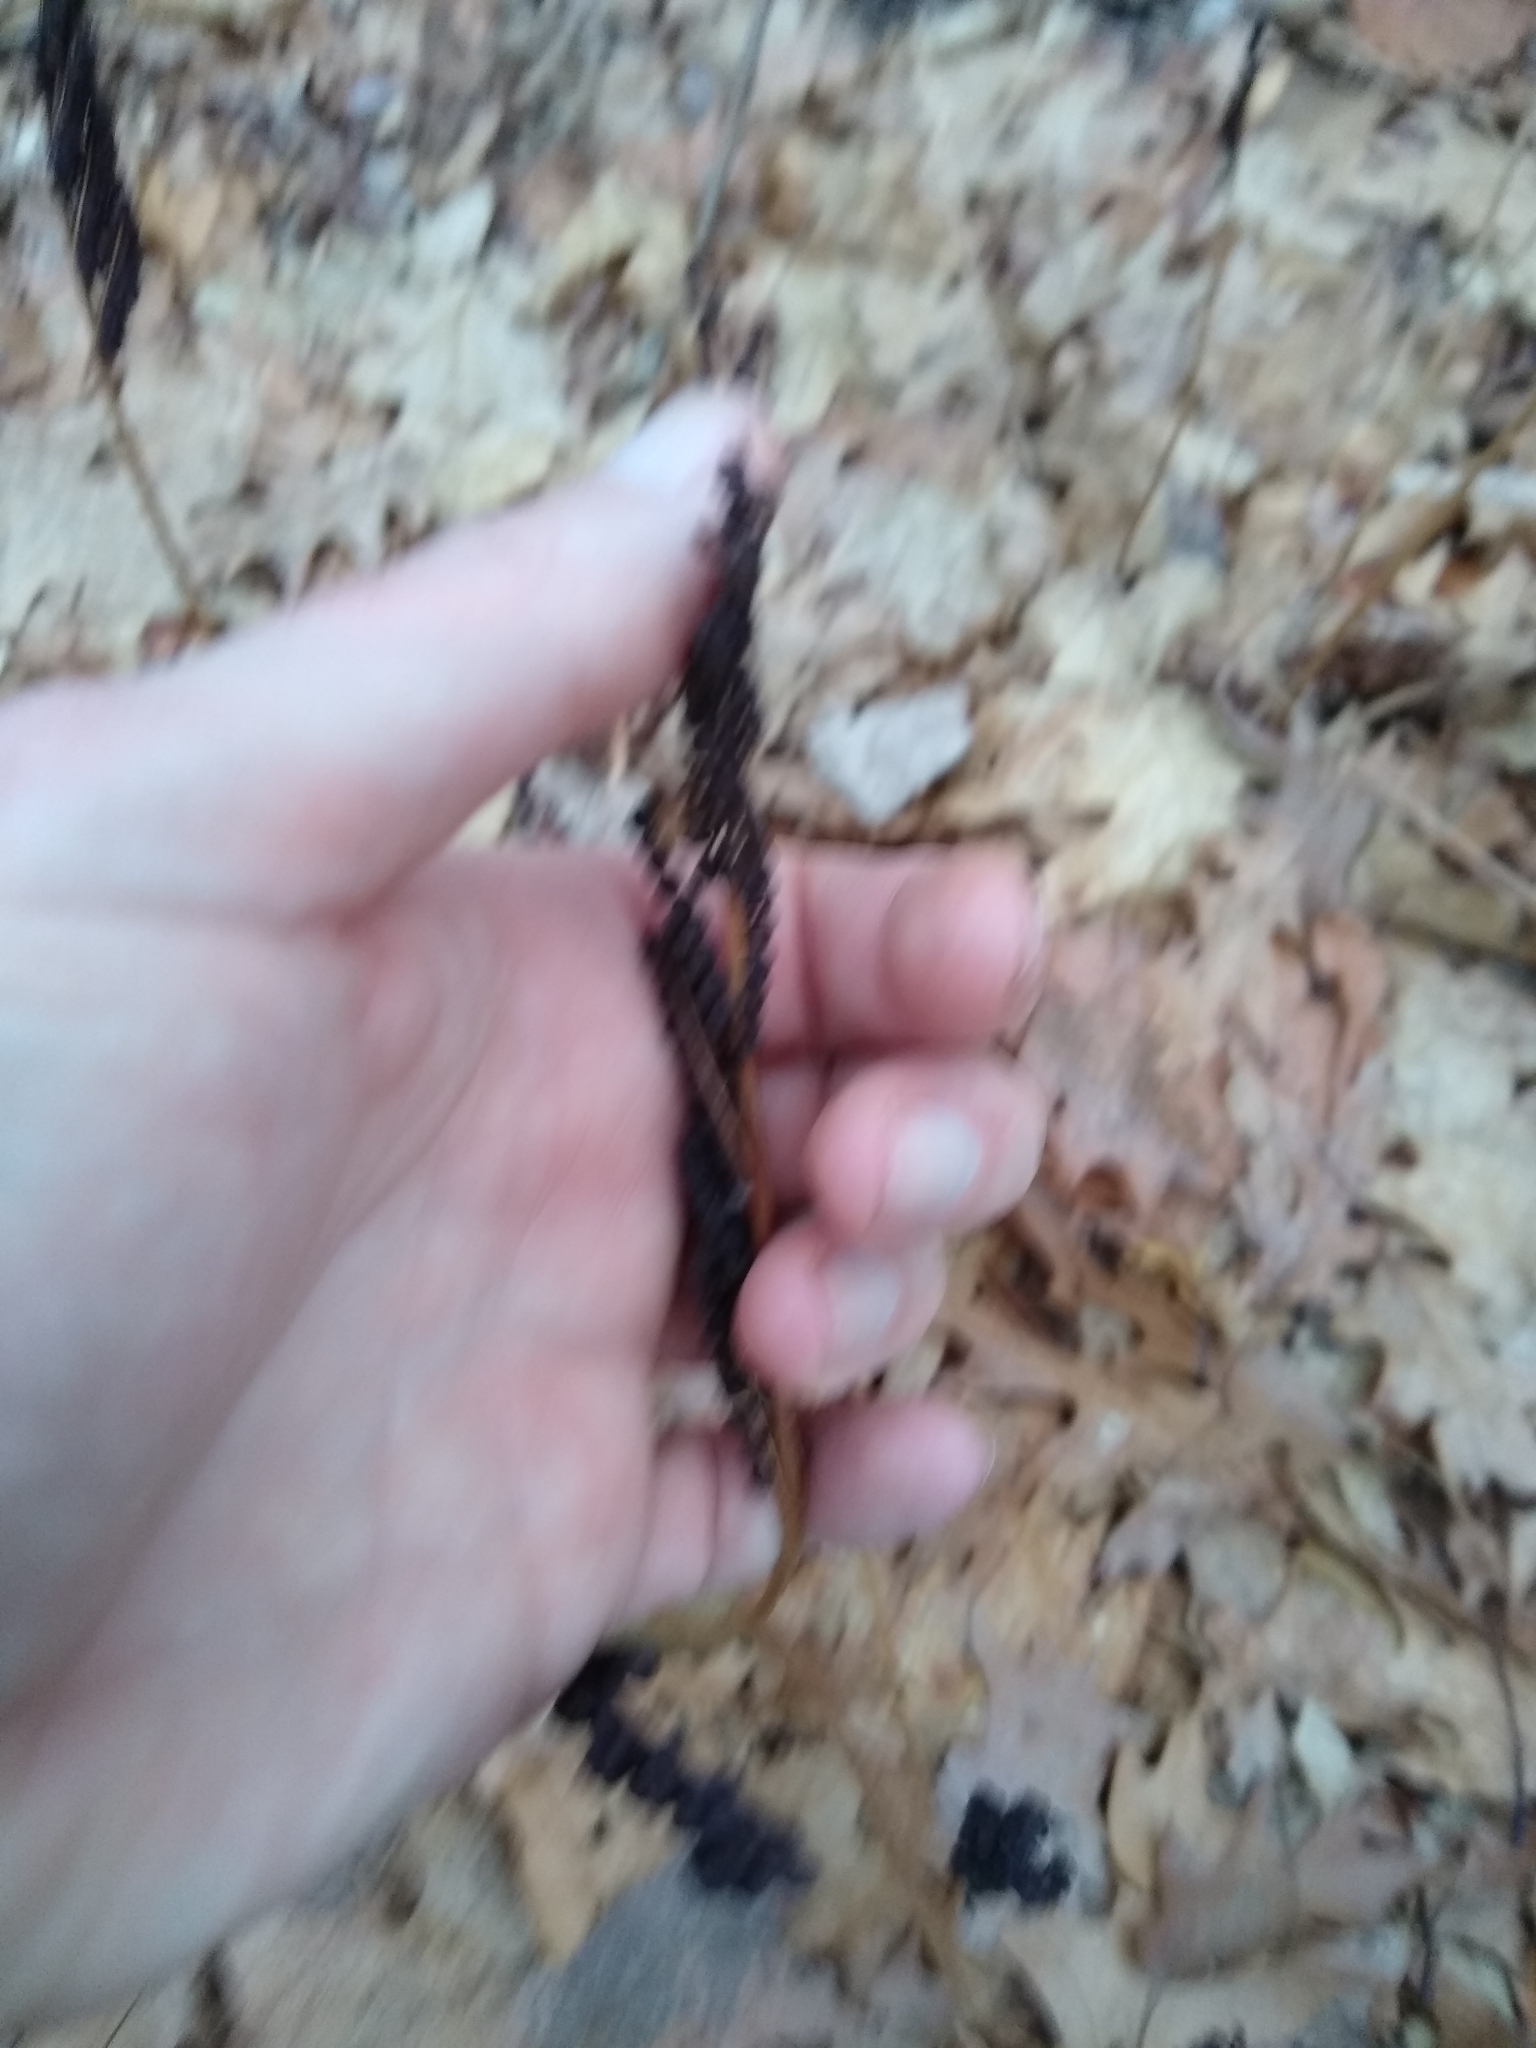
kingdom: Plantae
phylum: Tracheophyta
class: Polypodiopsida
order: Polypodiales
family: Onocleaceae
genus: Onoclea
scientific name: Onoclea sensibilis
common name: Sensitive fern
